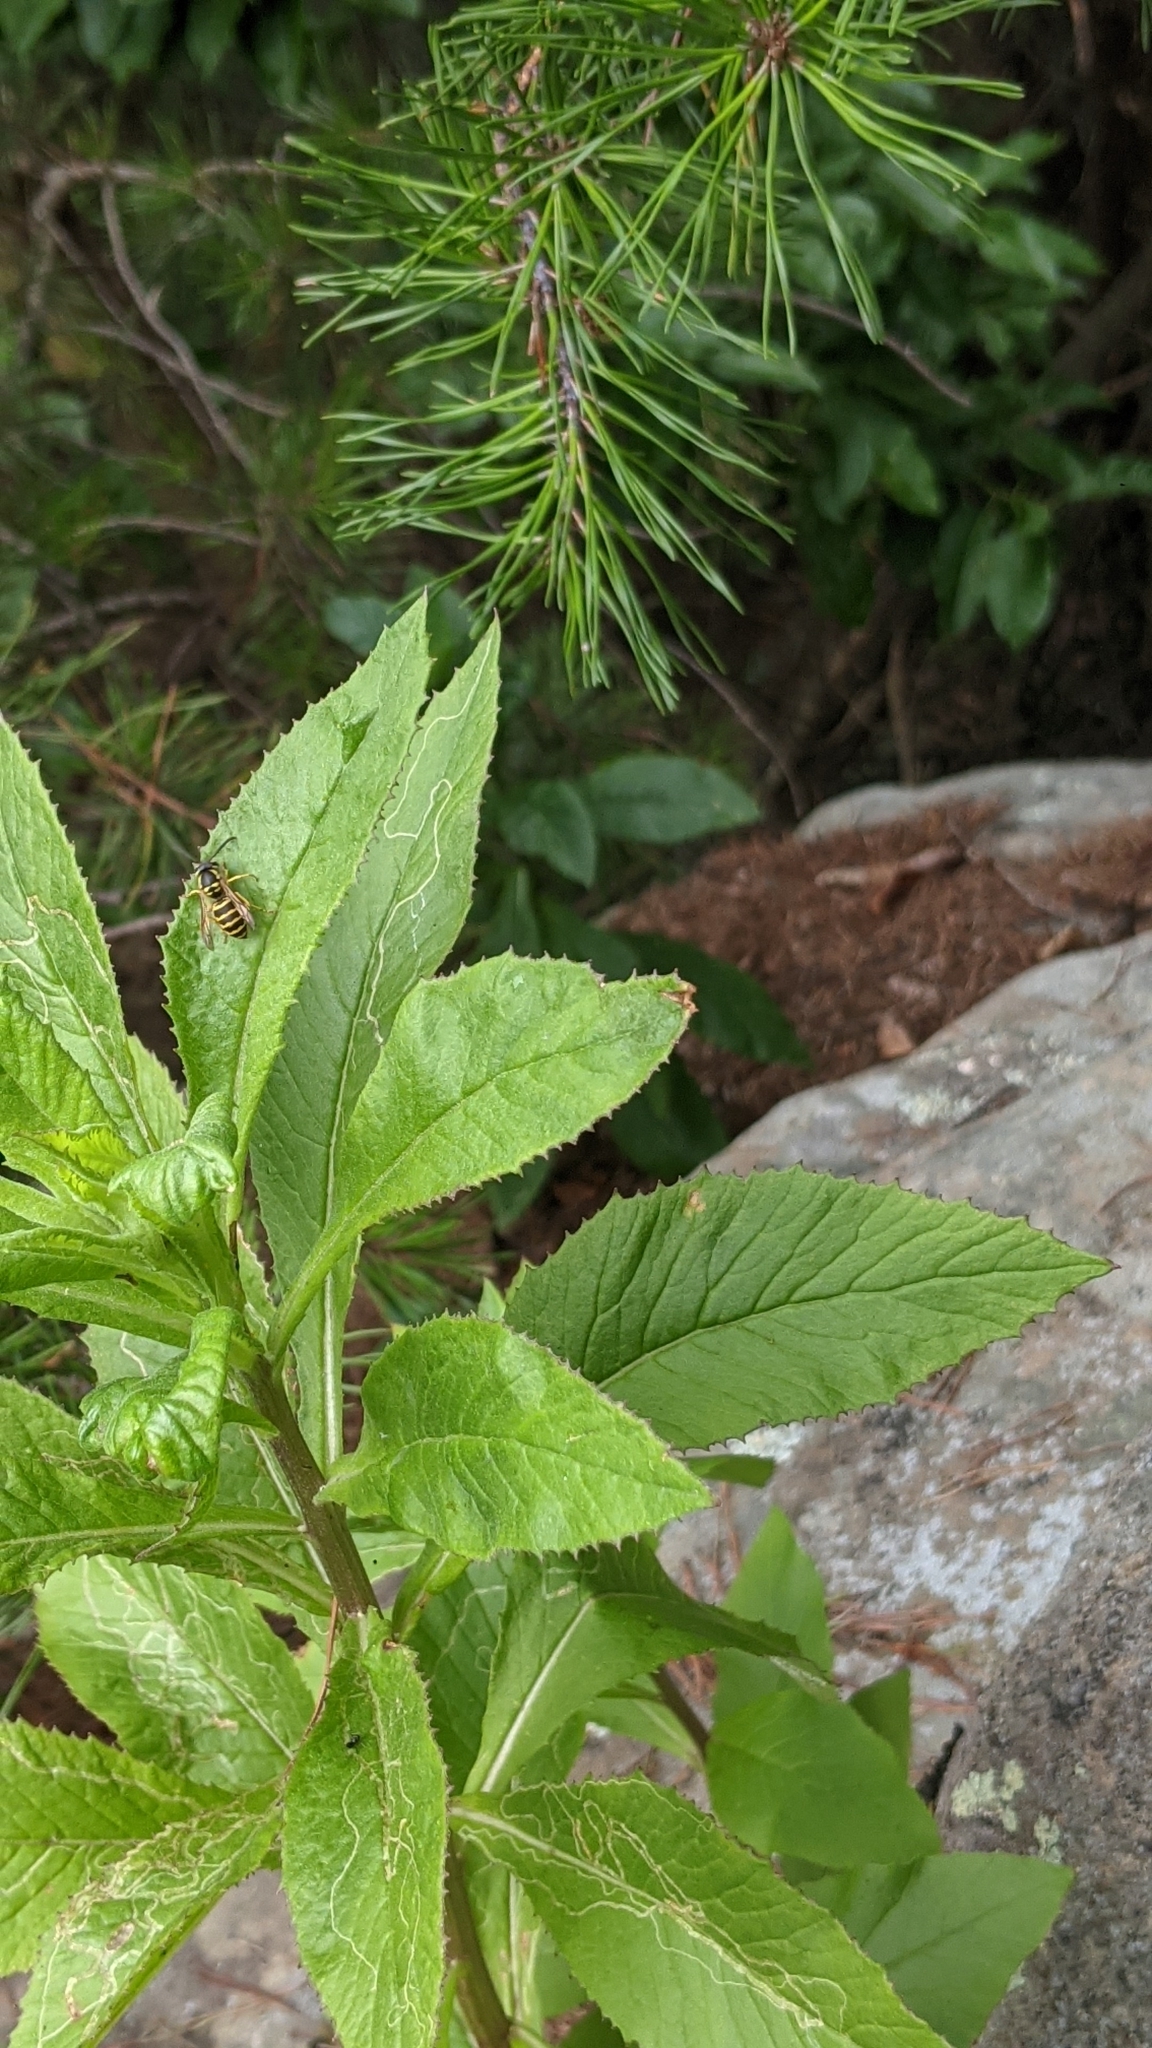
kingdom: Animalia
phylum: Arthropoda
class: Insecta
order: Hymenoptera
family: Vespidae
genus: Vespula
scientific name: Vespula
